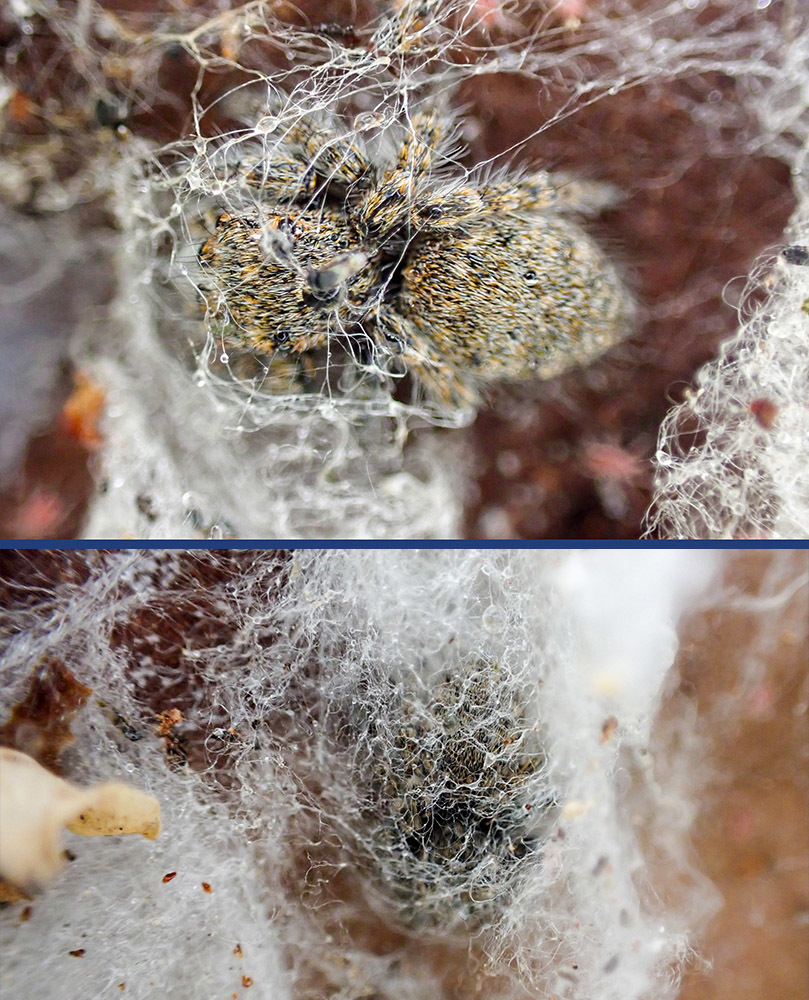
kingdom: Animalia
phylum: Arthropoda
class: Arachnida
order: Araneae
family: Salticidae
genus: Philaeus
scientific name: Philaeus chrysops
